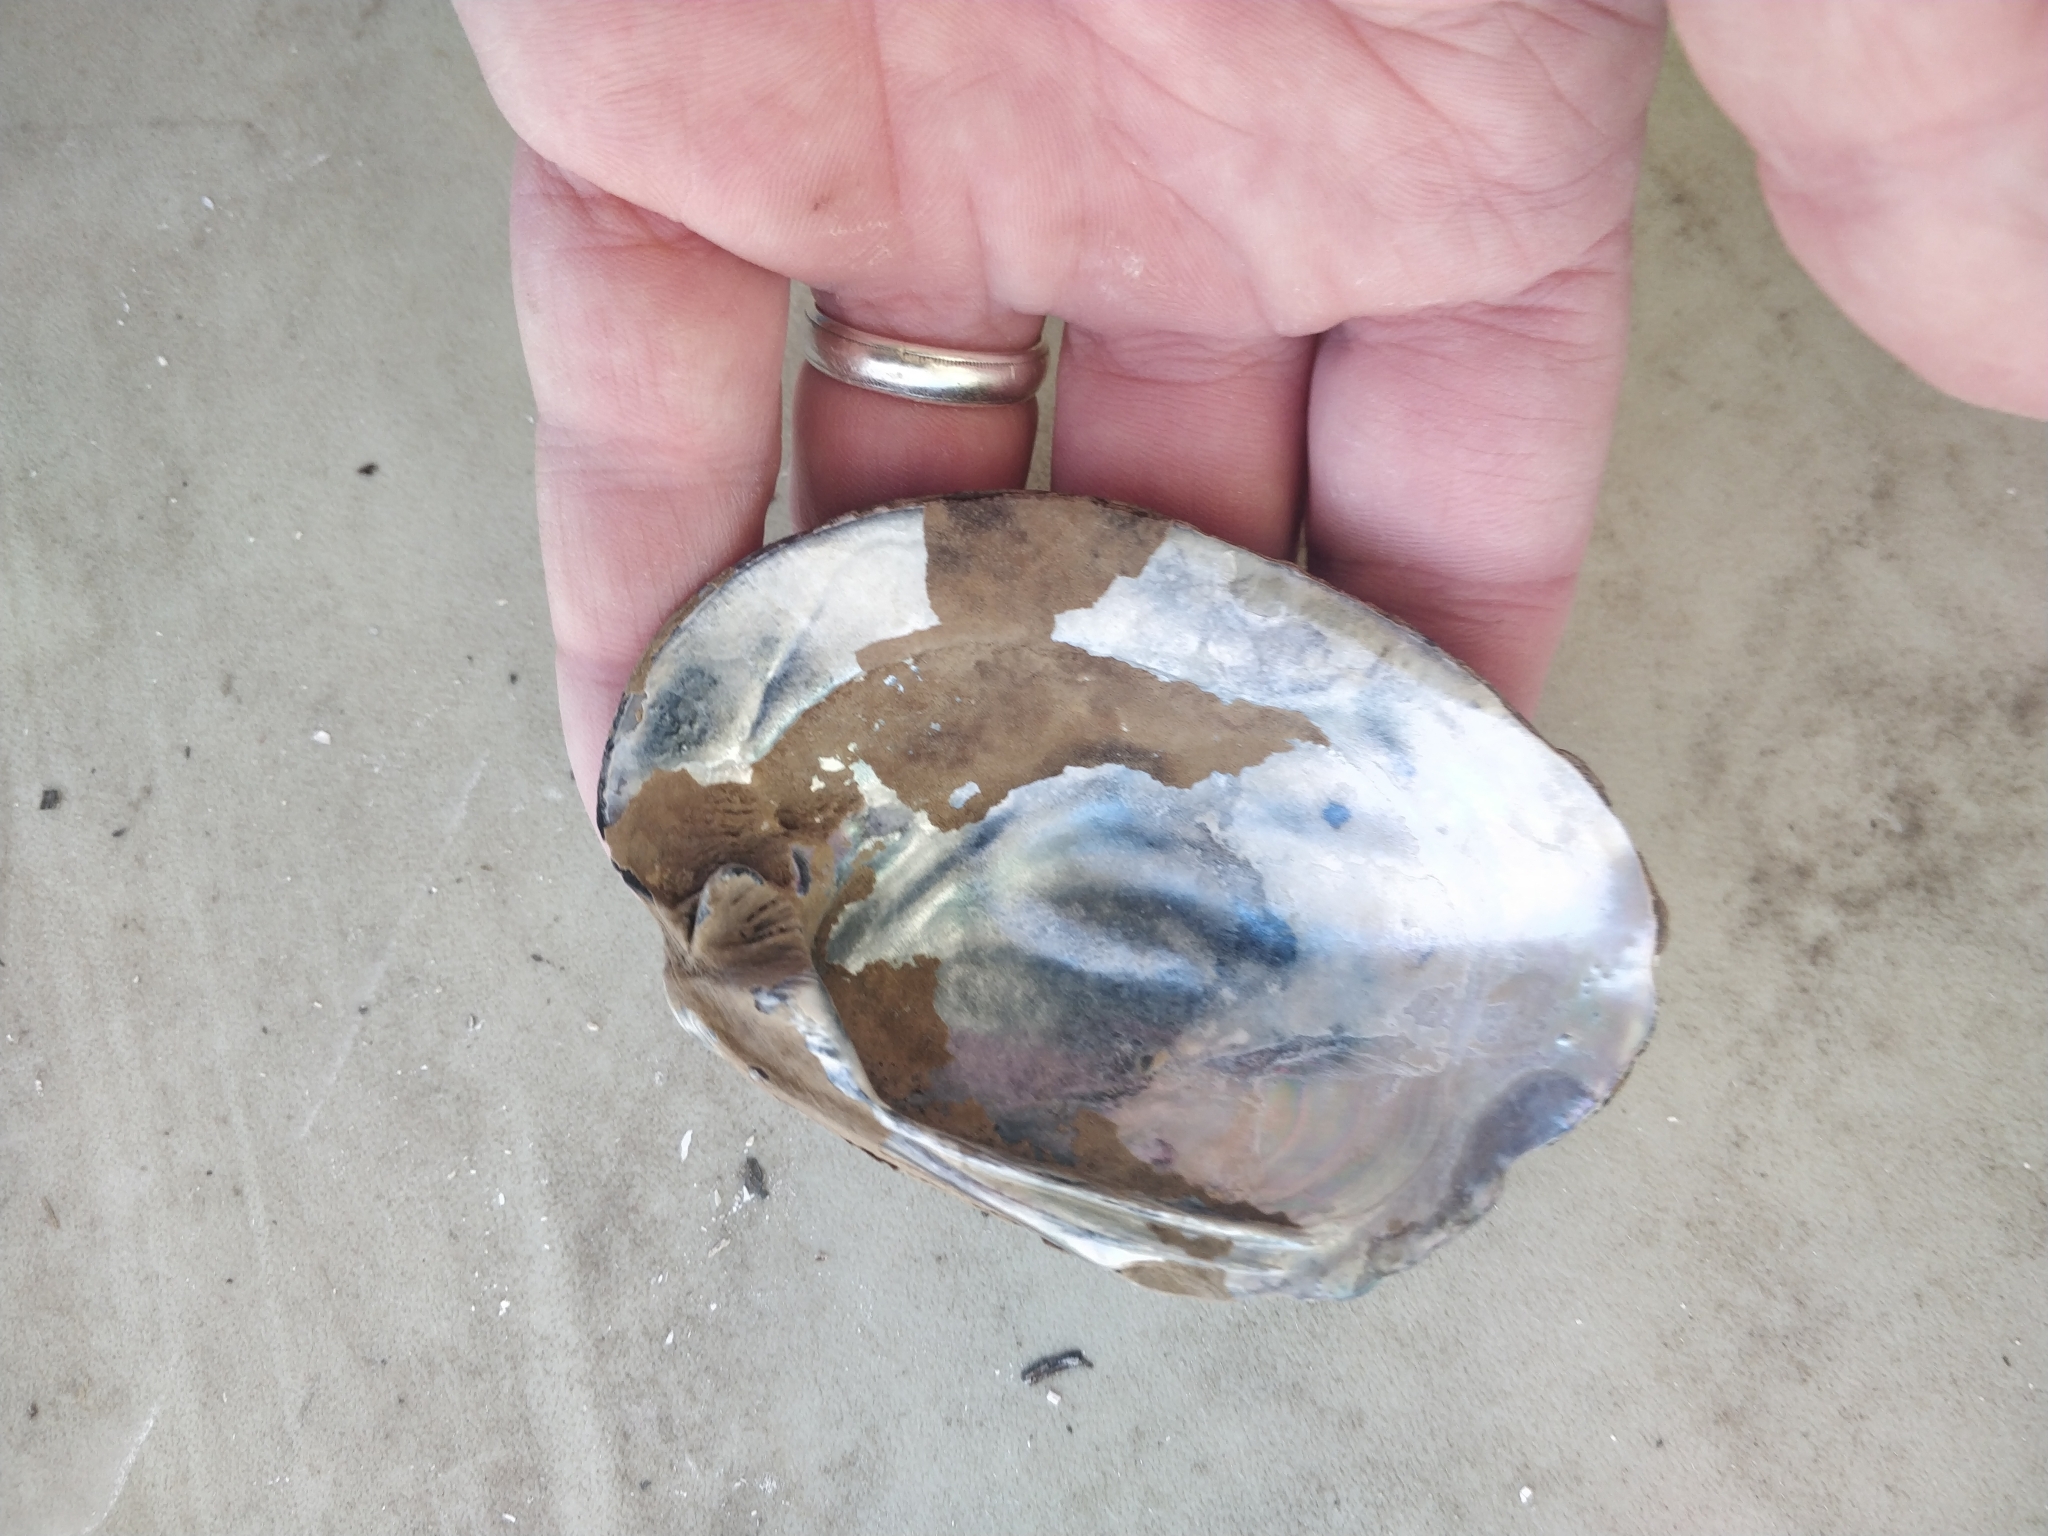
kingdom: Animalia
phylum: Mollusca
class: Bivalvia
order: Unionida
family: Unionidae
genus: Amblema
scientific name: Amblema plicata
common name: Threeridge
